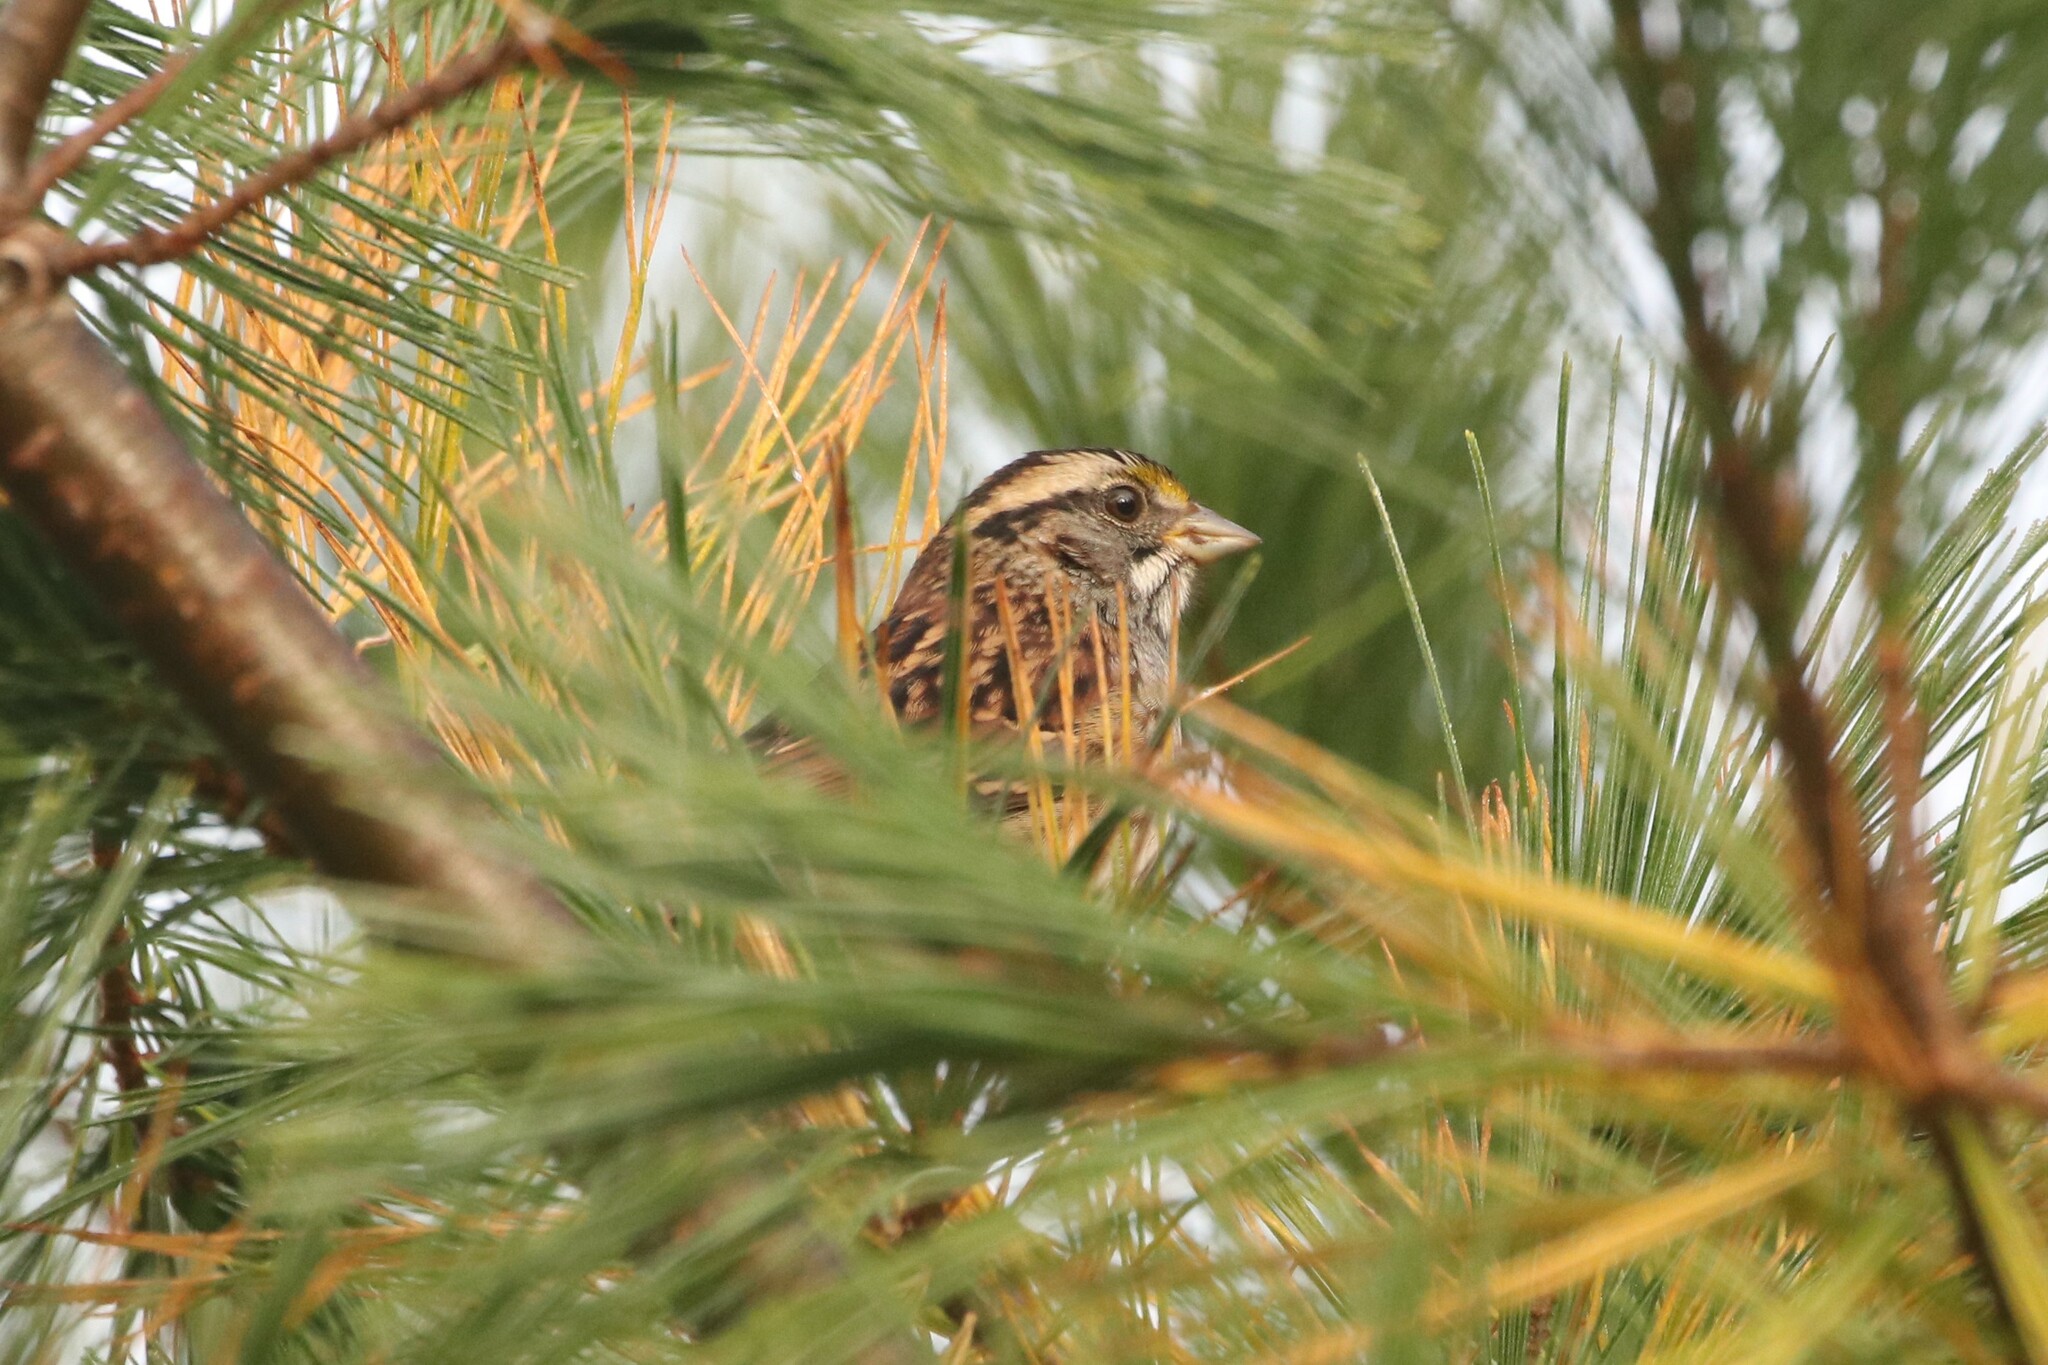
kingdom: Animalia
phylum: Chordata
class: Aves
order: Passeriformes
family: Passerellidae
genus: Zonotrichia
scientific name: Zonotrichia albicollis
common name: White-throated sparrow
